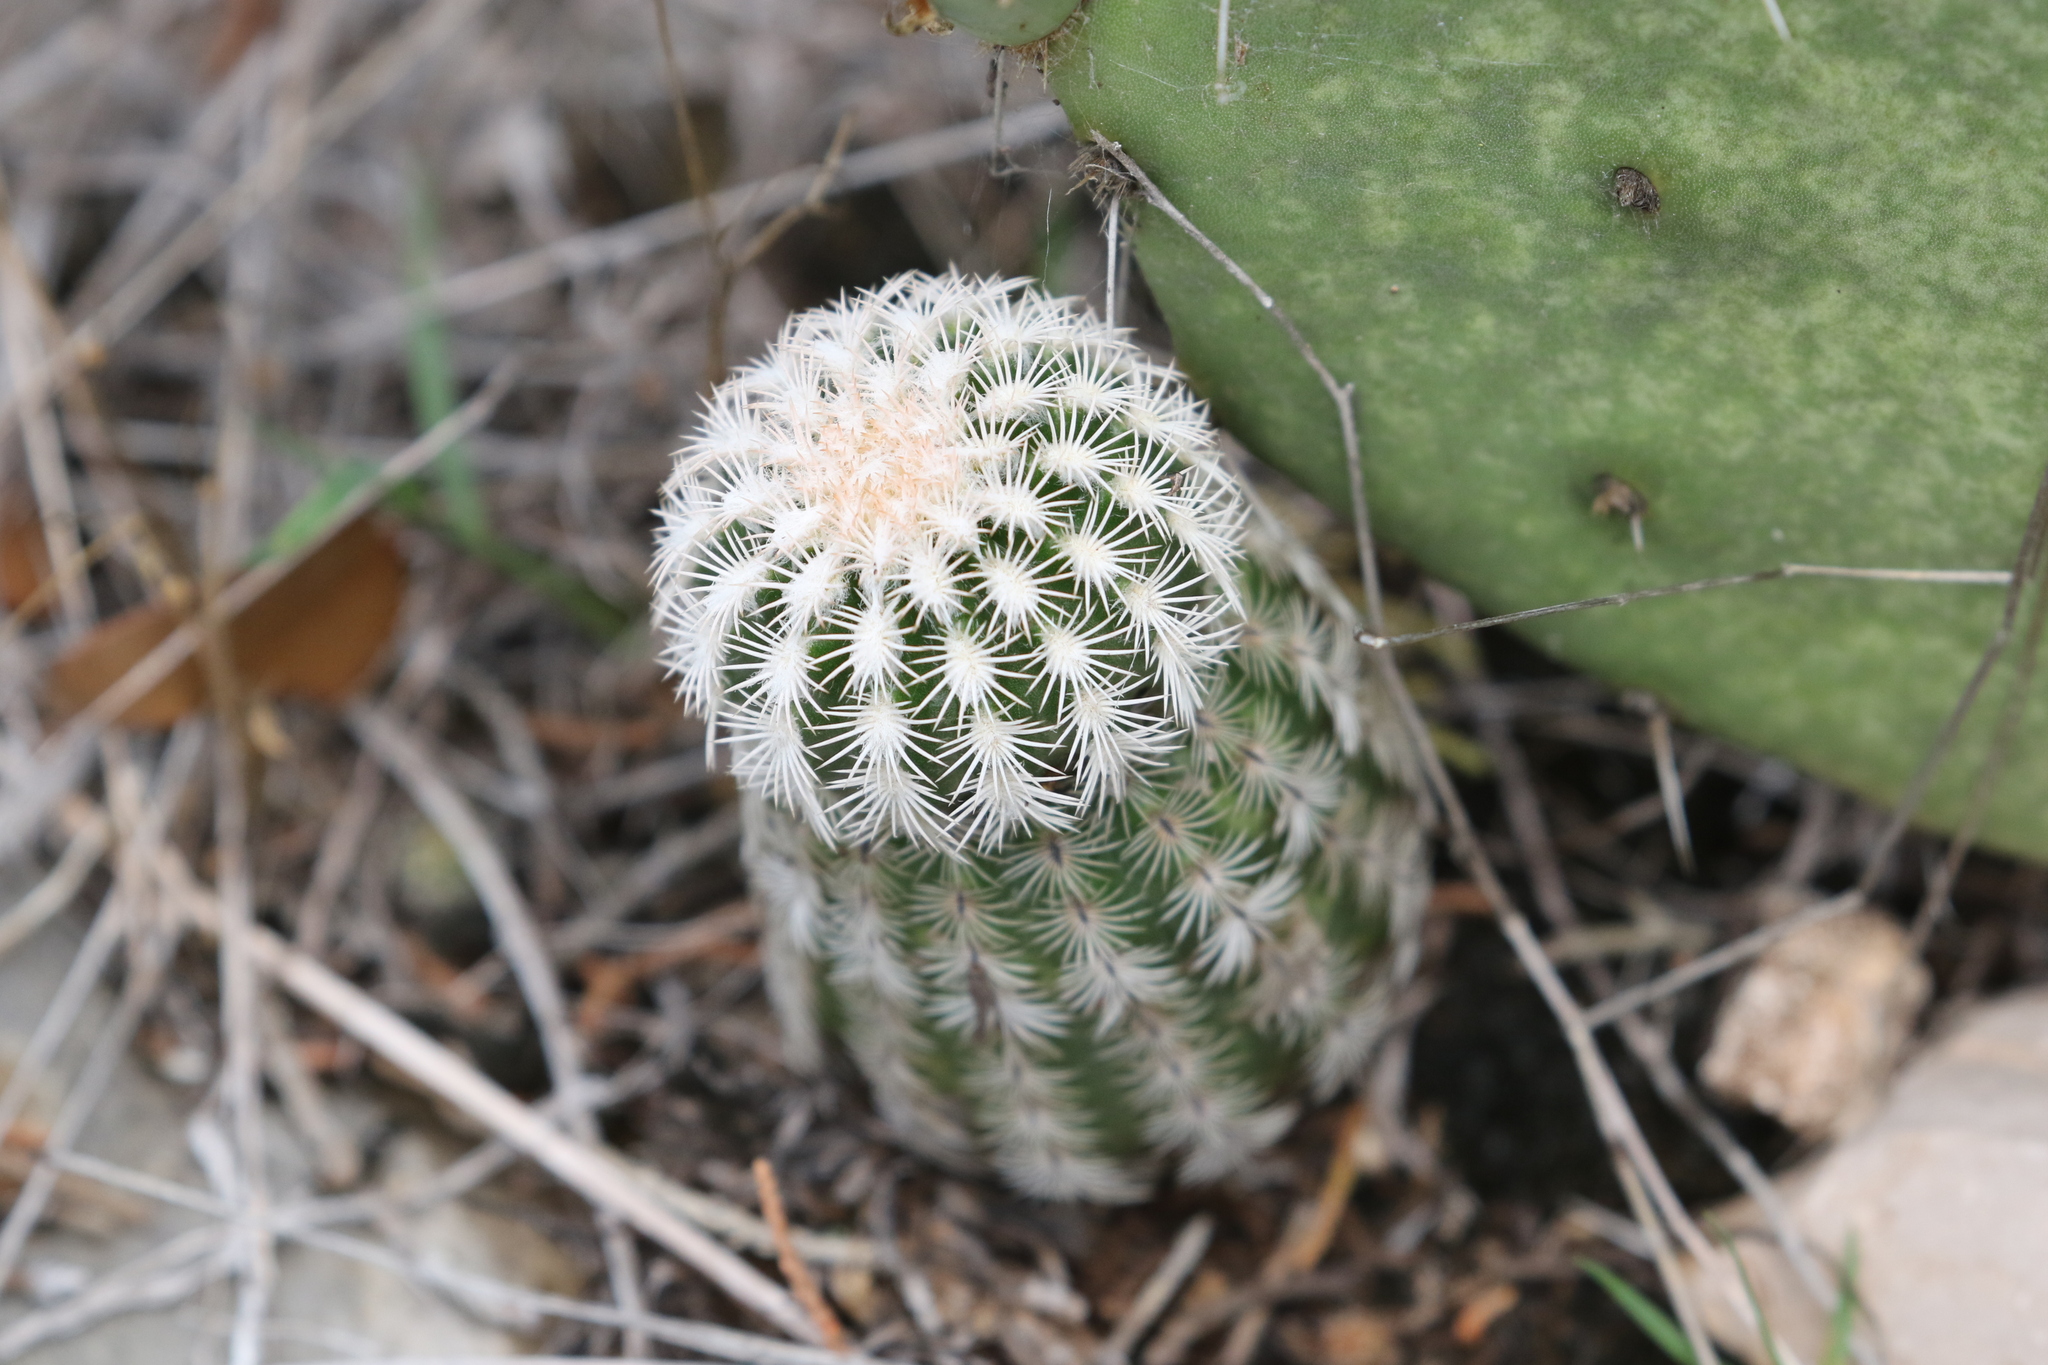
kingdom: Plantae
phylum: Tracheophyta
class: Magnoliopsida
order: Caryophyllales
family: Cactaceae
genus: Echinocereus
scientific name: Echinocereus reichenbachii
